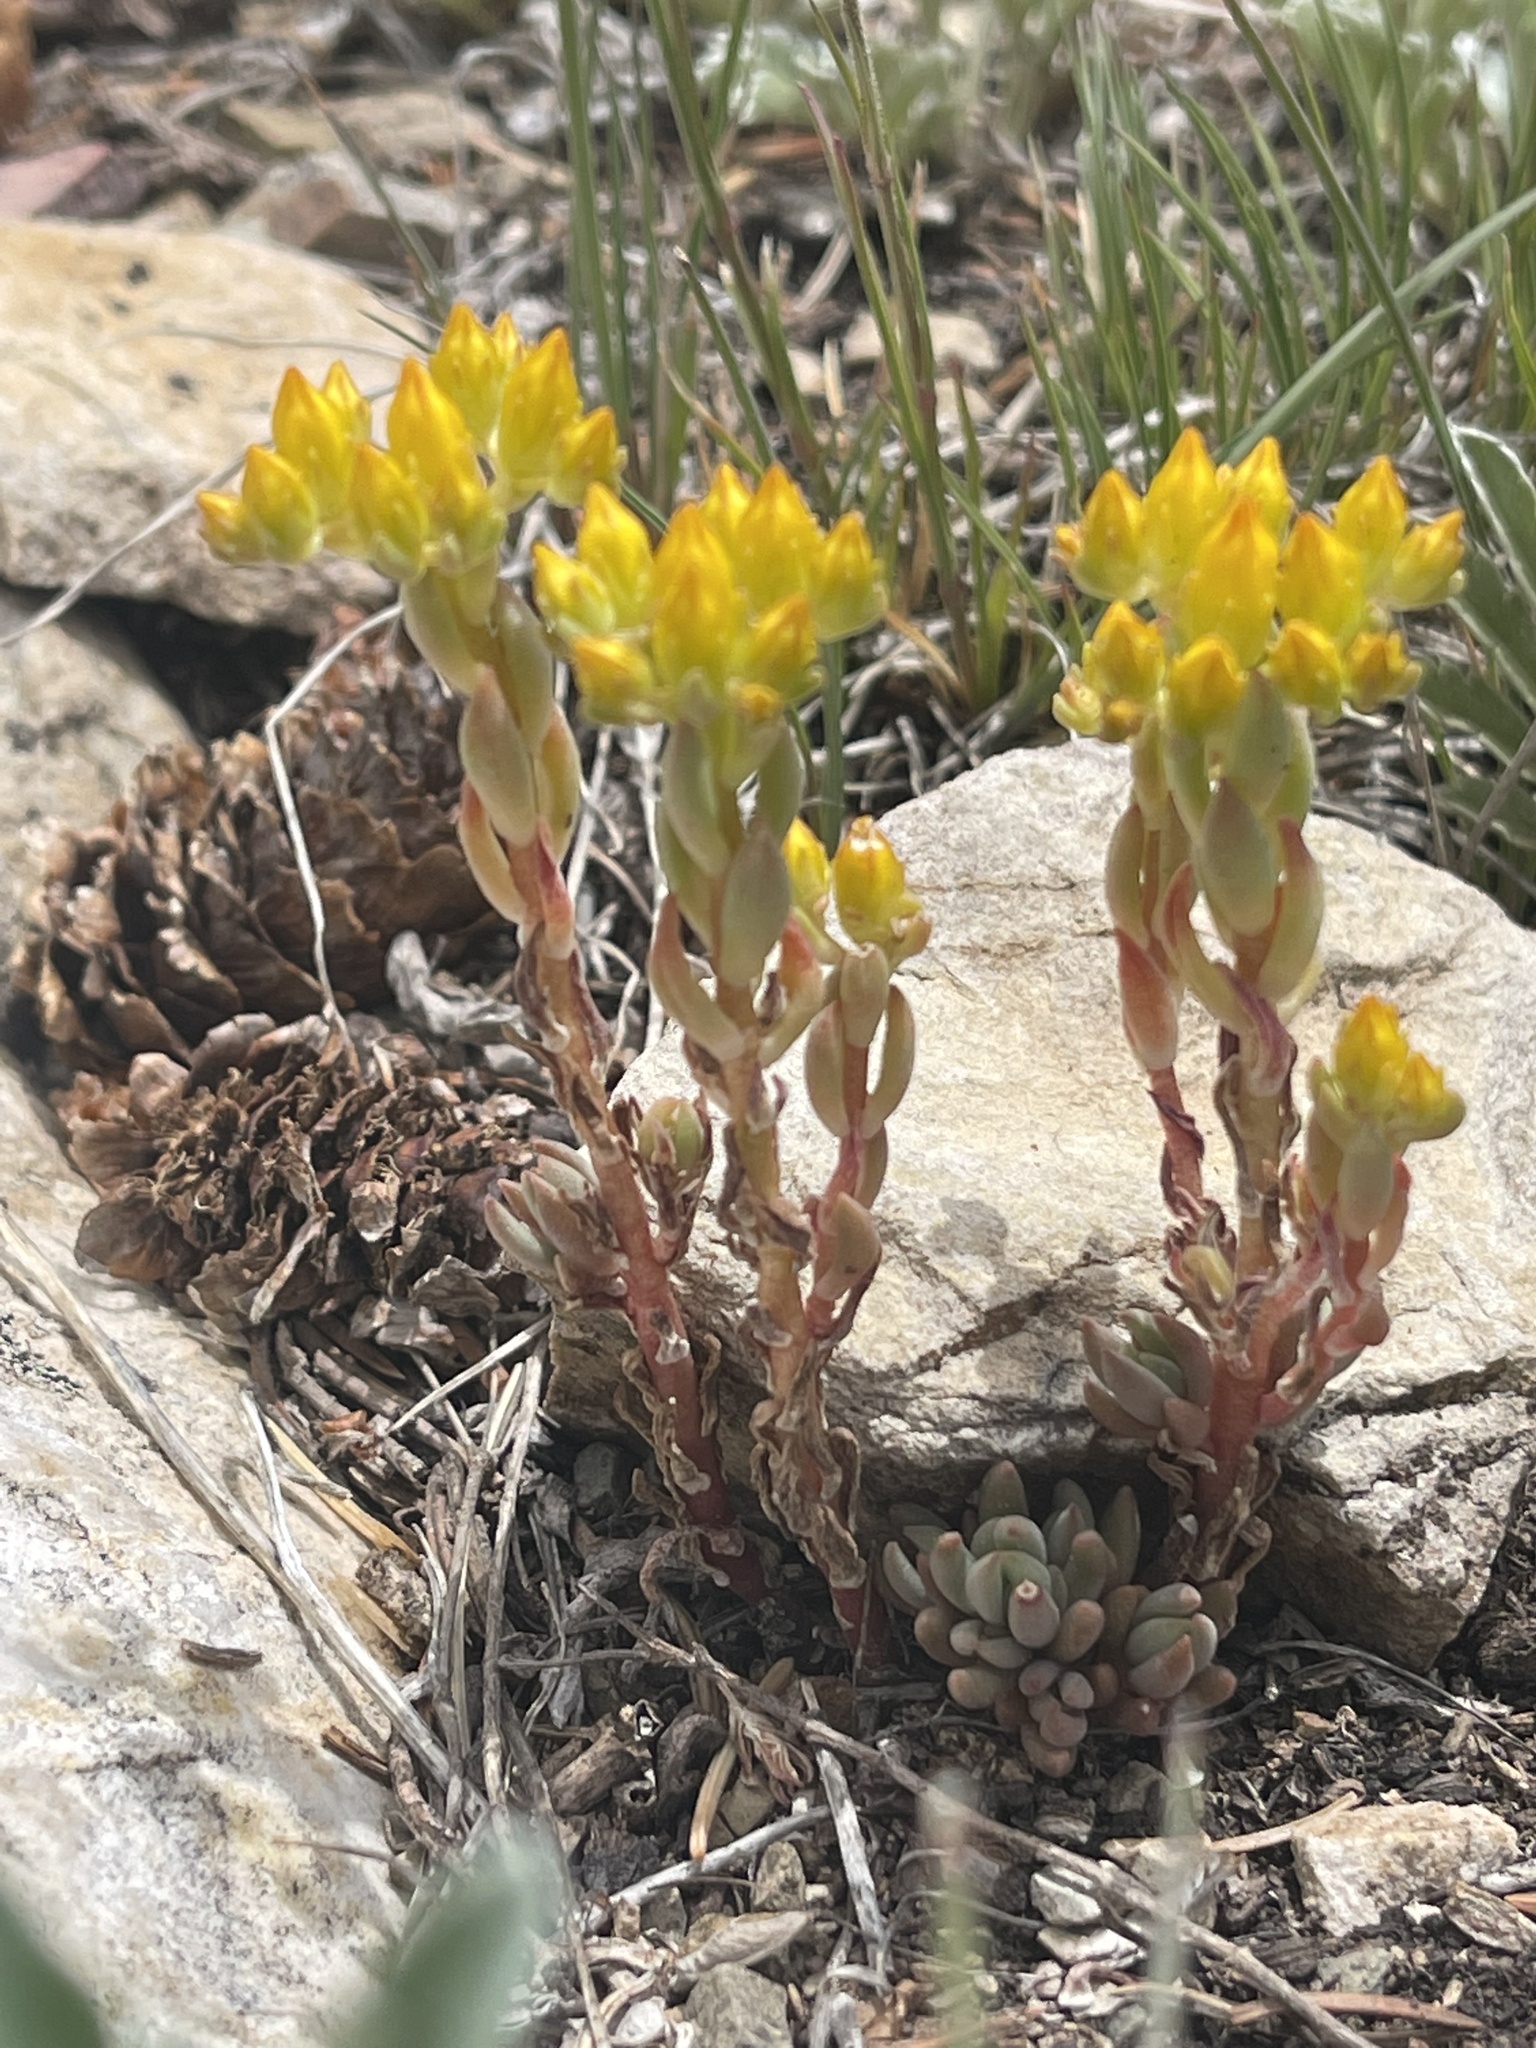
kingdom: Plantae
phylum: Tracheophyta
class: Magnoliopsida
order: Saxifragales
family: Crassulaceae
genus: Sedum
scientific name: Sedum lanceolatum
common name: Common stonecrop
